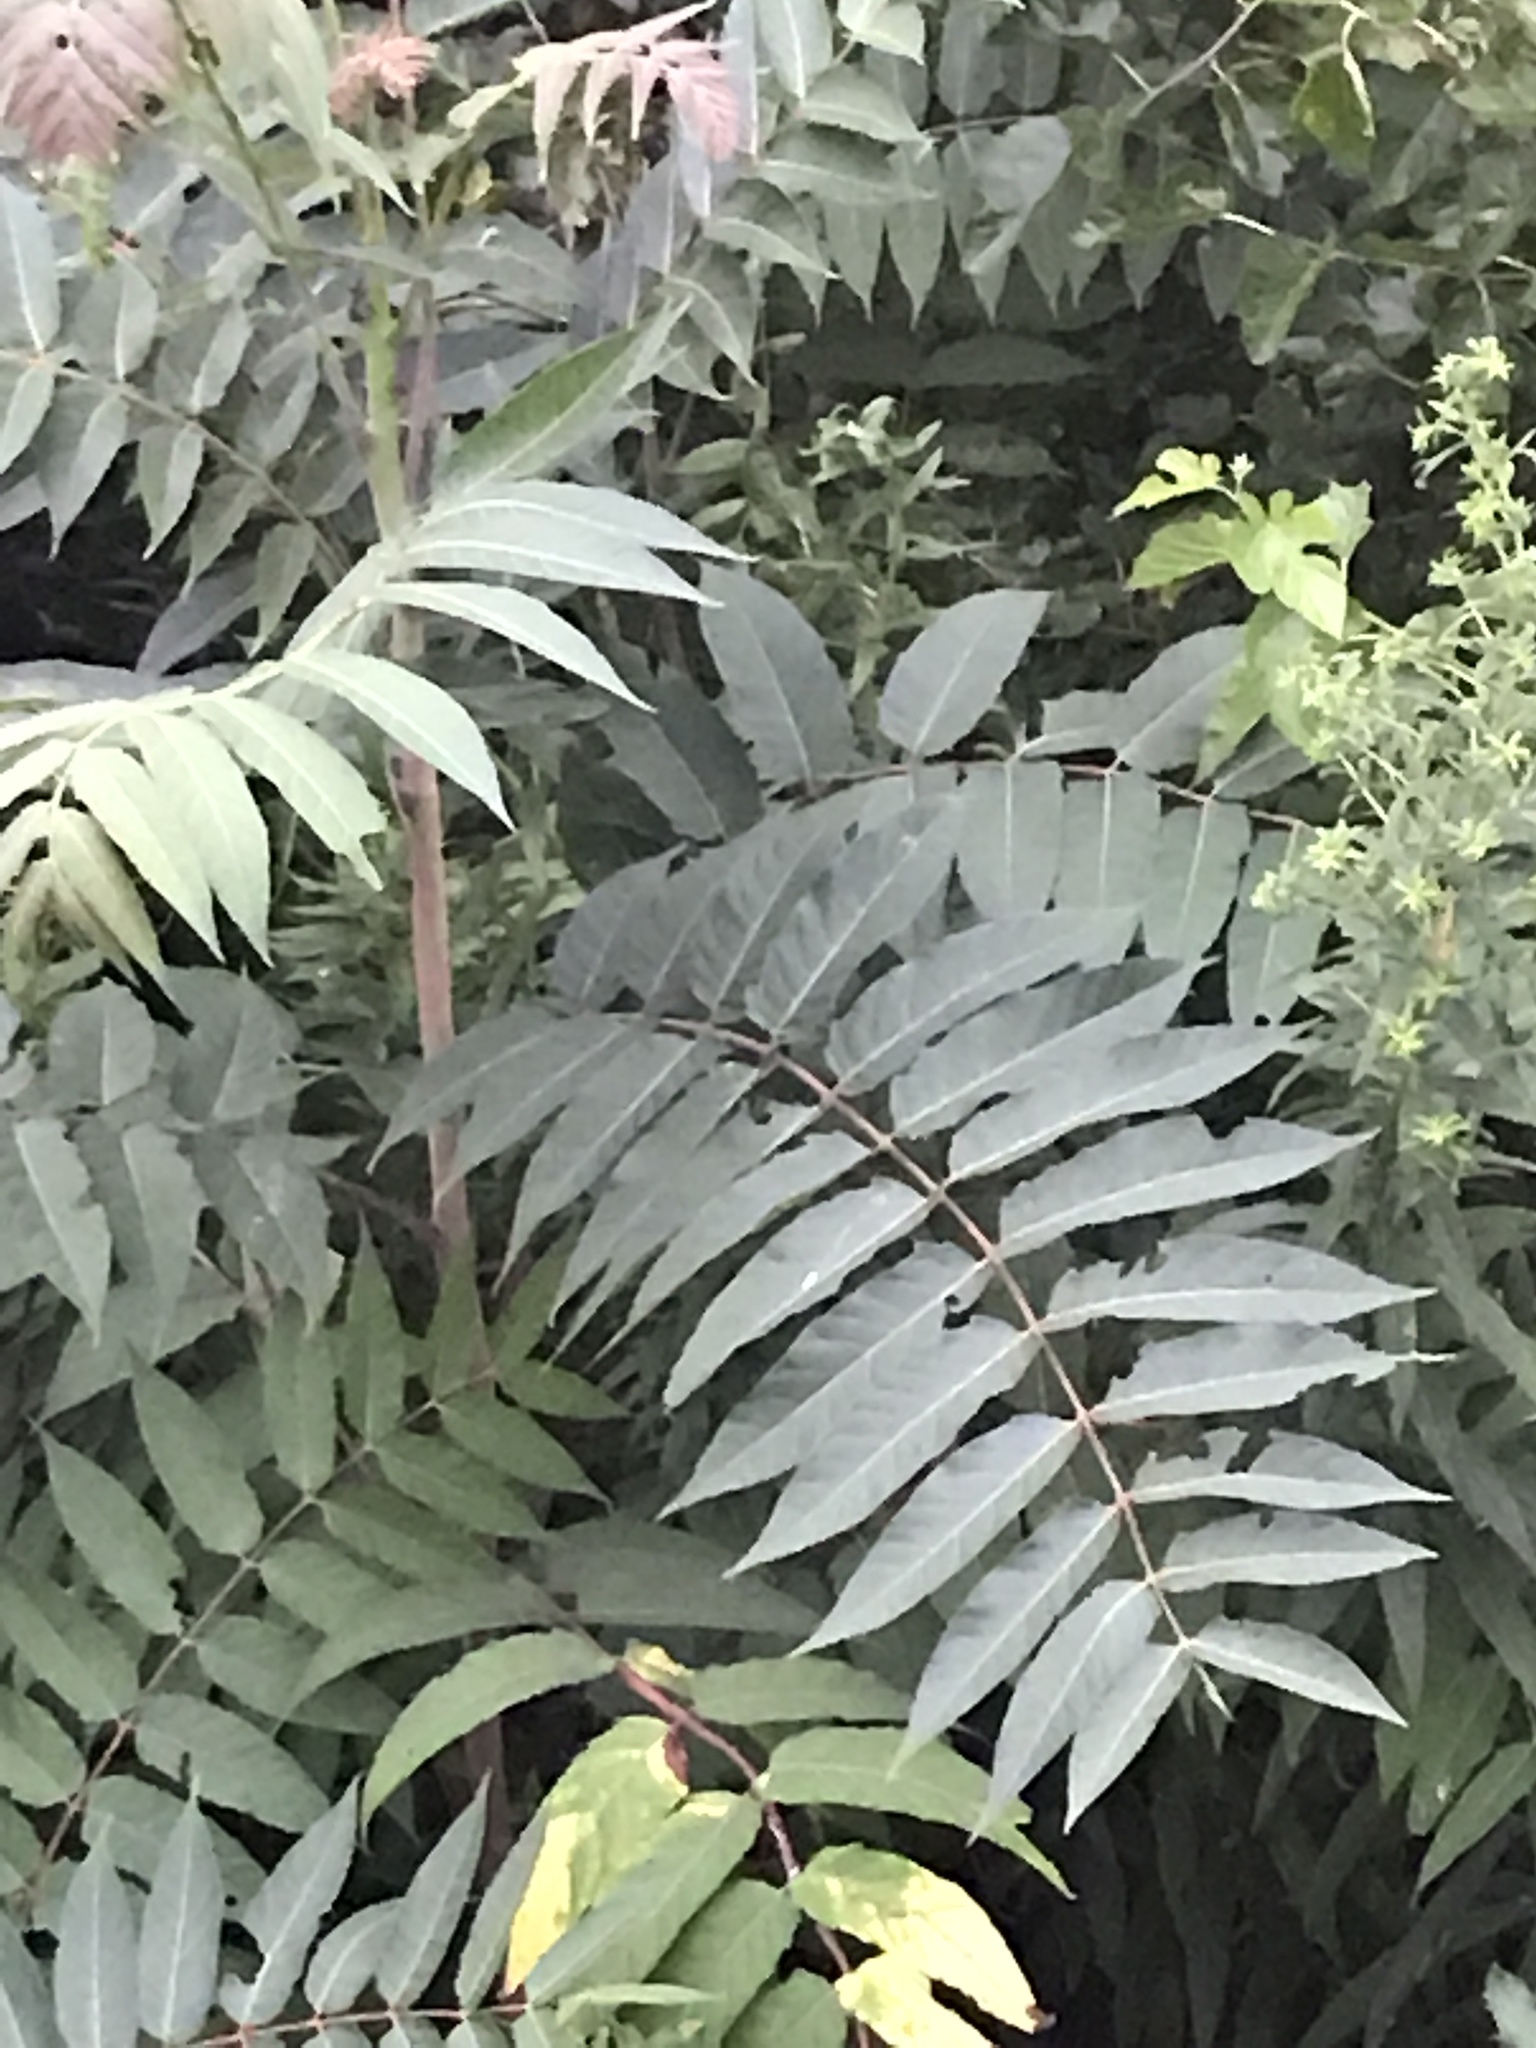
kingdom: Plantae
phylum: Tracheophyta
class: Magnoliopsida
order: Sapindales
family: Simaroubaceae
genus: Ailanthus
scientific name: Ailanthus altissima
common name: Tree-of-heaven
